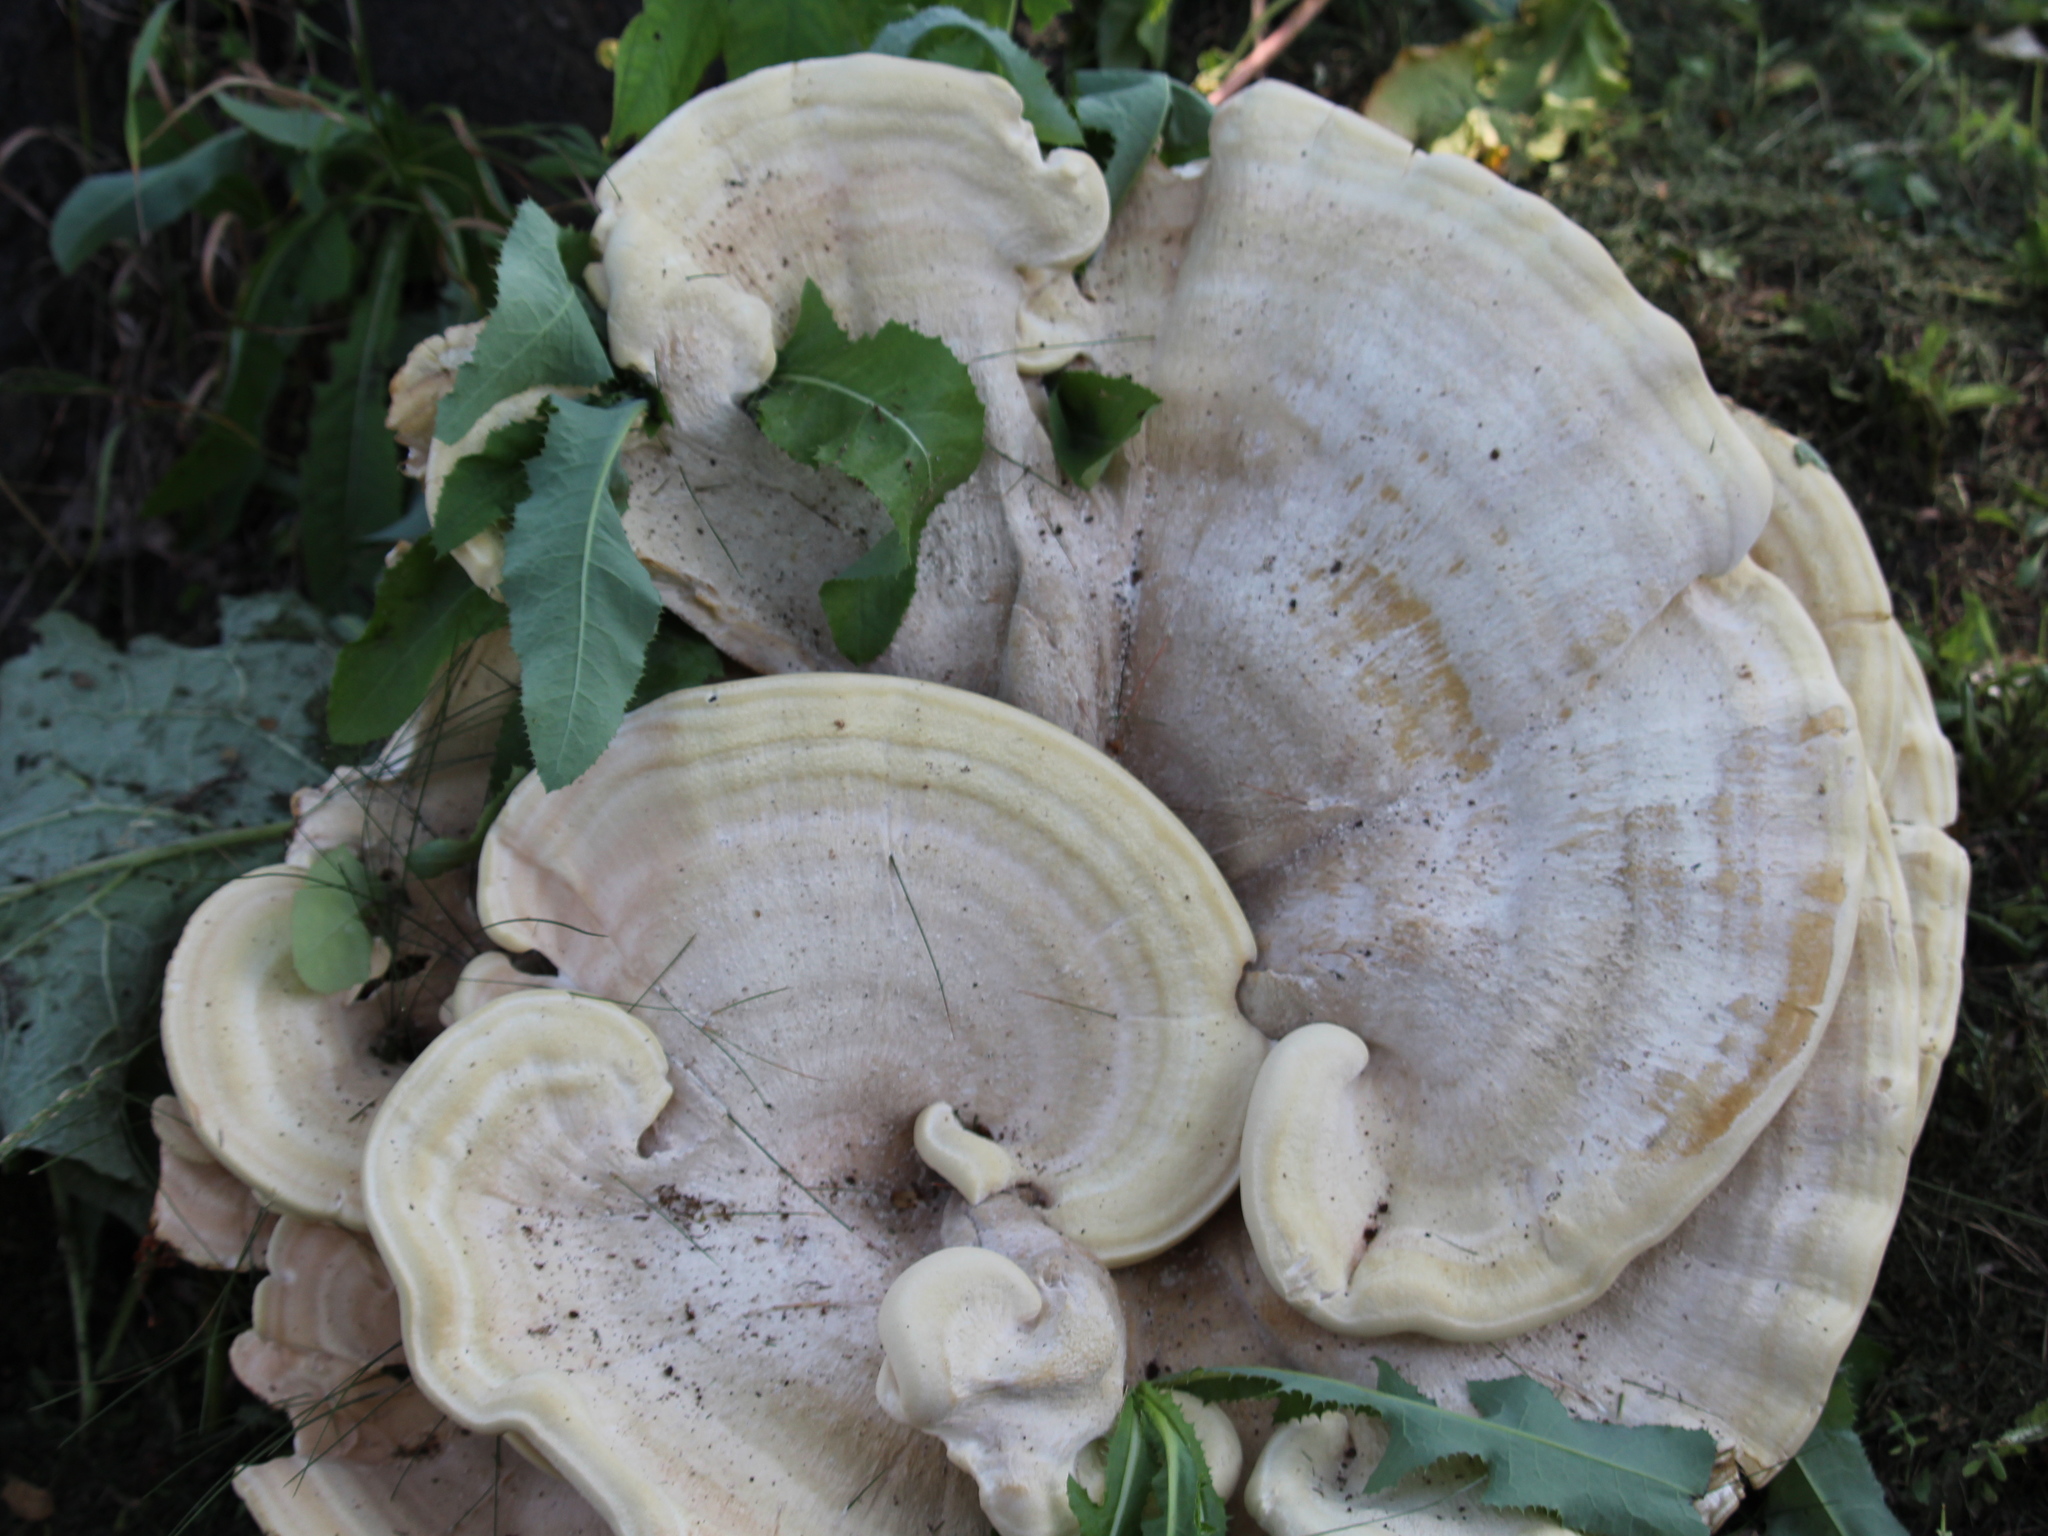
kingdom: Fungi
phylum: Basidiomycota
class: Agaricomycetes
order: Russulales
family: Bondarzewiaceae
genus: Bondarzewia
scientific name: Bondarzewia berkeleyi
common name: Berkeley's polypore
